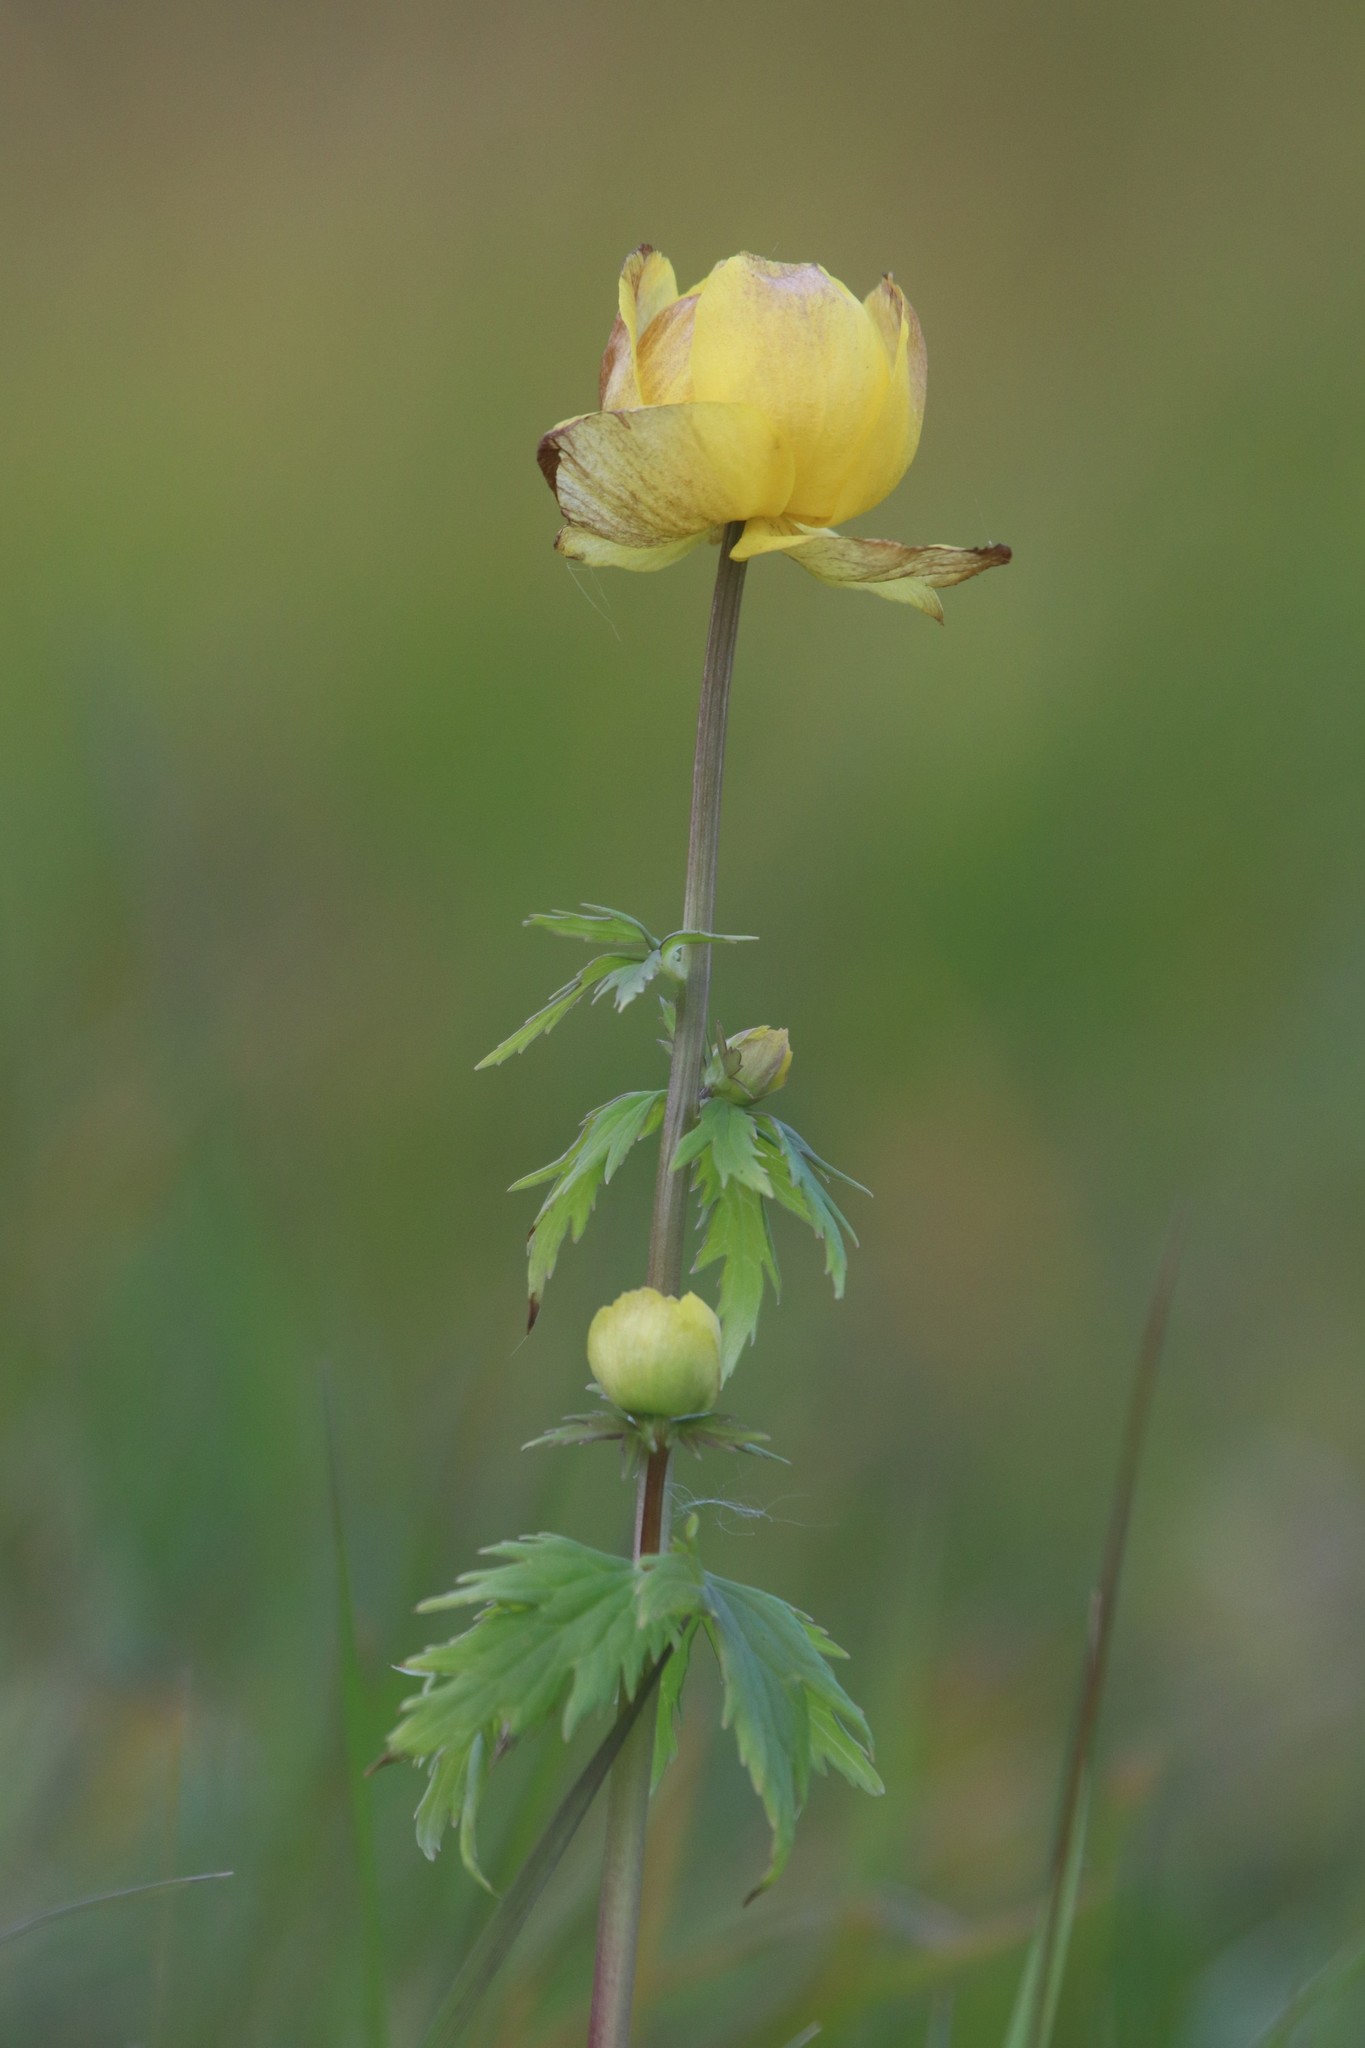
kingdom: Plantae
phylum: Tracheophyta
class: Magnoliopsida
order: Ranunculales
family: Ranunculaceae
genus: Trollius
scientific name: Trollius europaeus
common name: European globeflower
